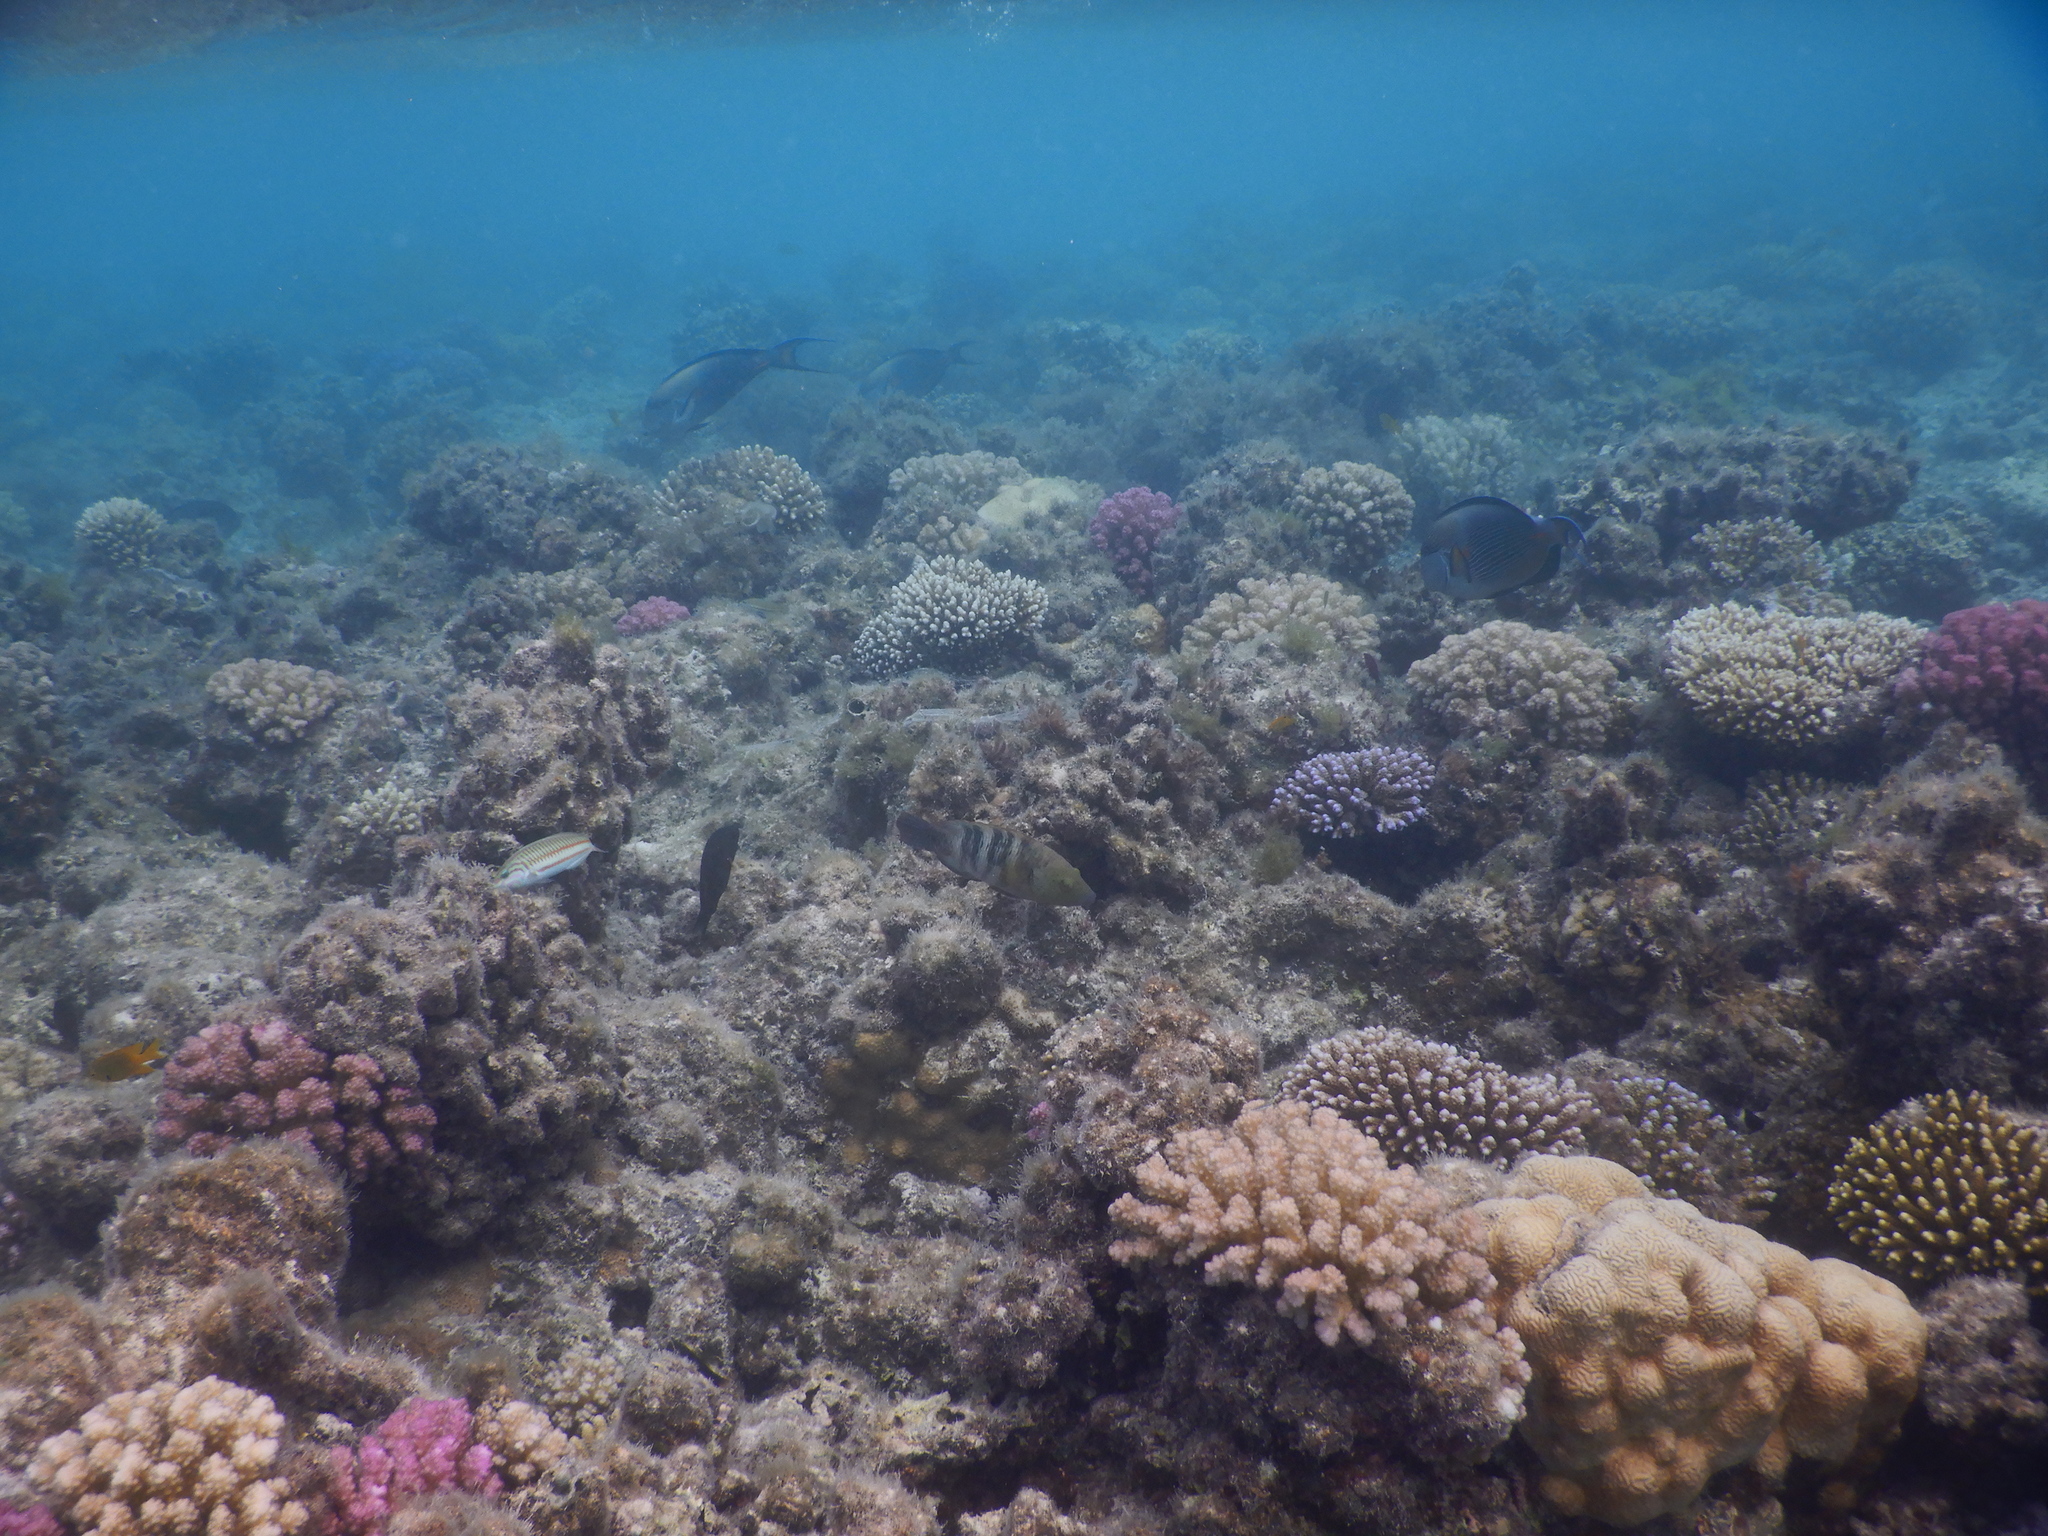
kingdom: Animalia
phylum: Chordata
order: Perciformes
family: Labridae
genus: Cheilinus
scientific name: Cheilinus lunulatus
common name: Broomtail wrasse
